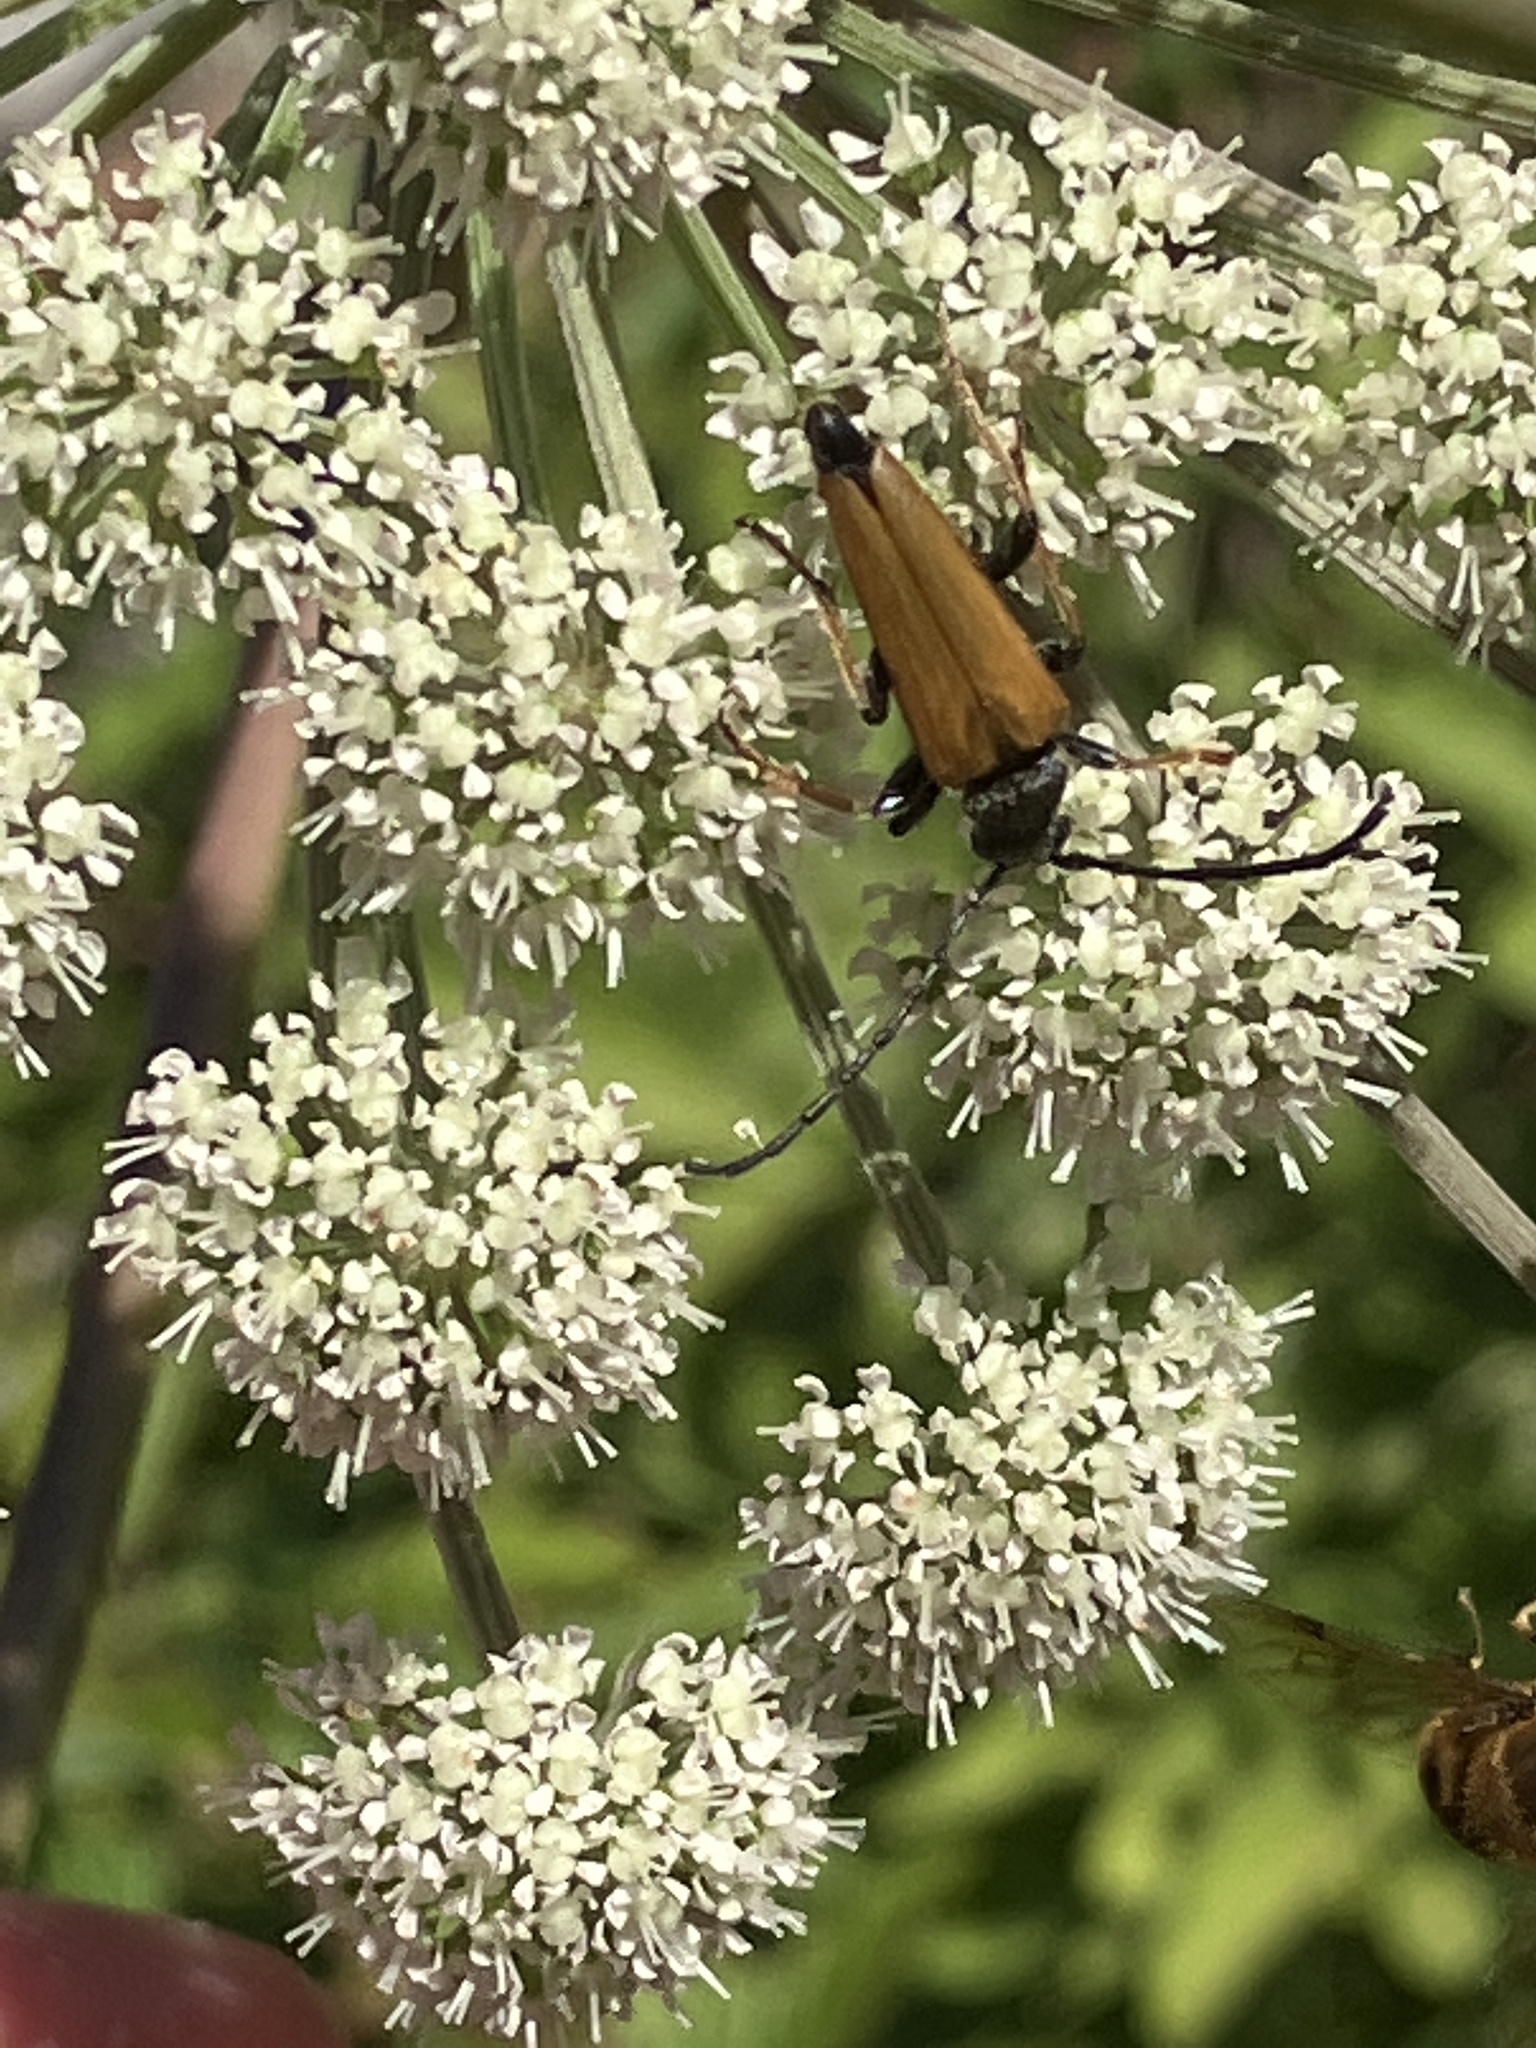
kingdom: Animalia
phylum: Arthropoda
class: Insecta
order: Coleoptera
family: Cerambycidae
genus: Stictoleptura
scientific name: Stictoleptura rubra
